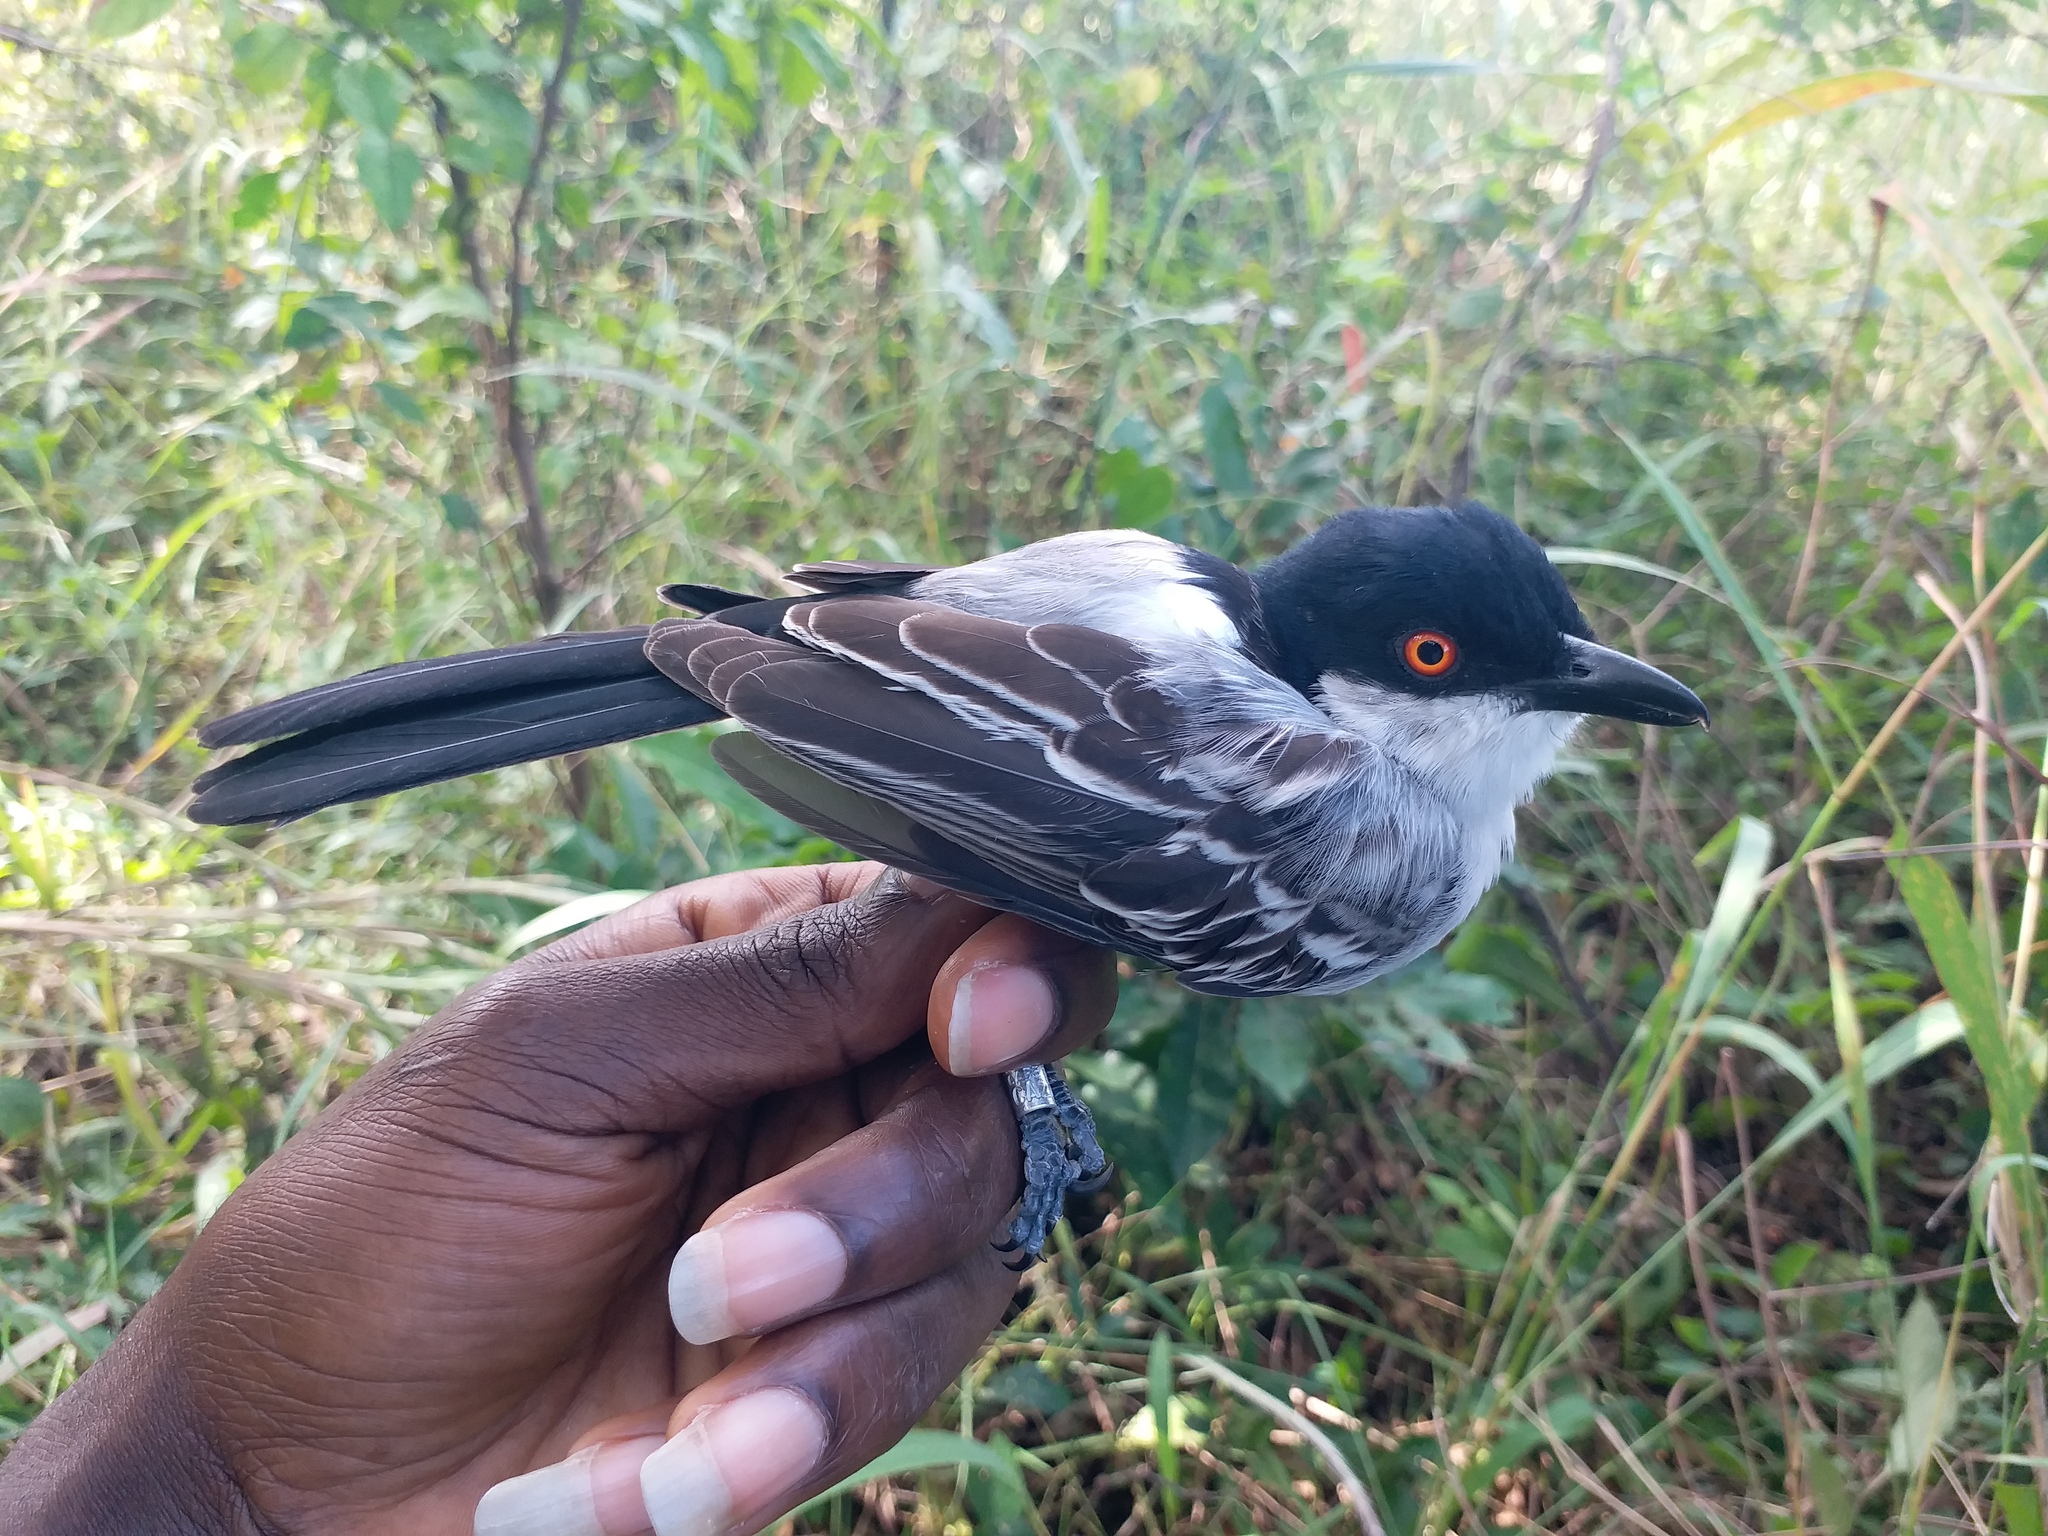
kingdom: Animalia
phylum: Chordata
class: Aves
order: Passeriformes
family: Malaconotidae
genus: Dryoscopus
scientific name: Dryoscopus gambensis
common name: Northern puffback
